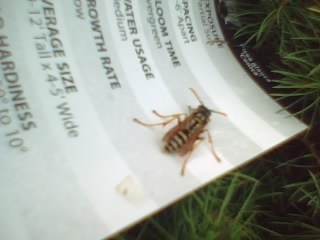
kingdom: Animalia
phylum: Arthropoda
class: Insecta
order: Hymenoptera
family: Eumenidae
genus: Polistes
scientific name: Polistes dominula
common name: Paper wasp
